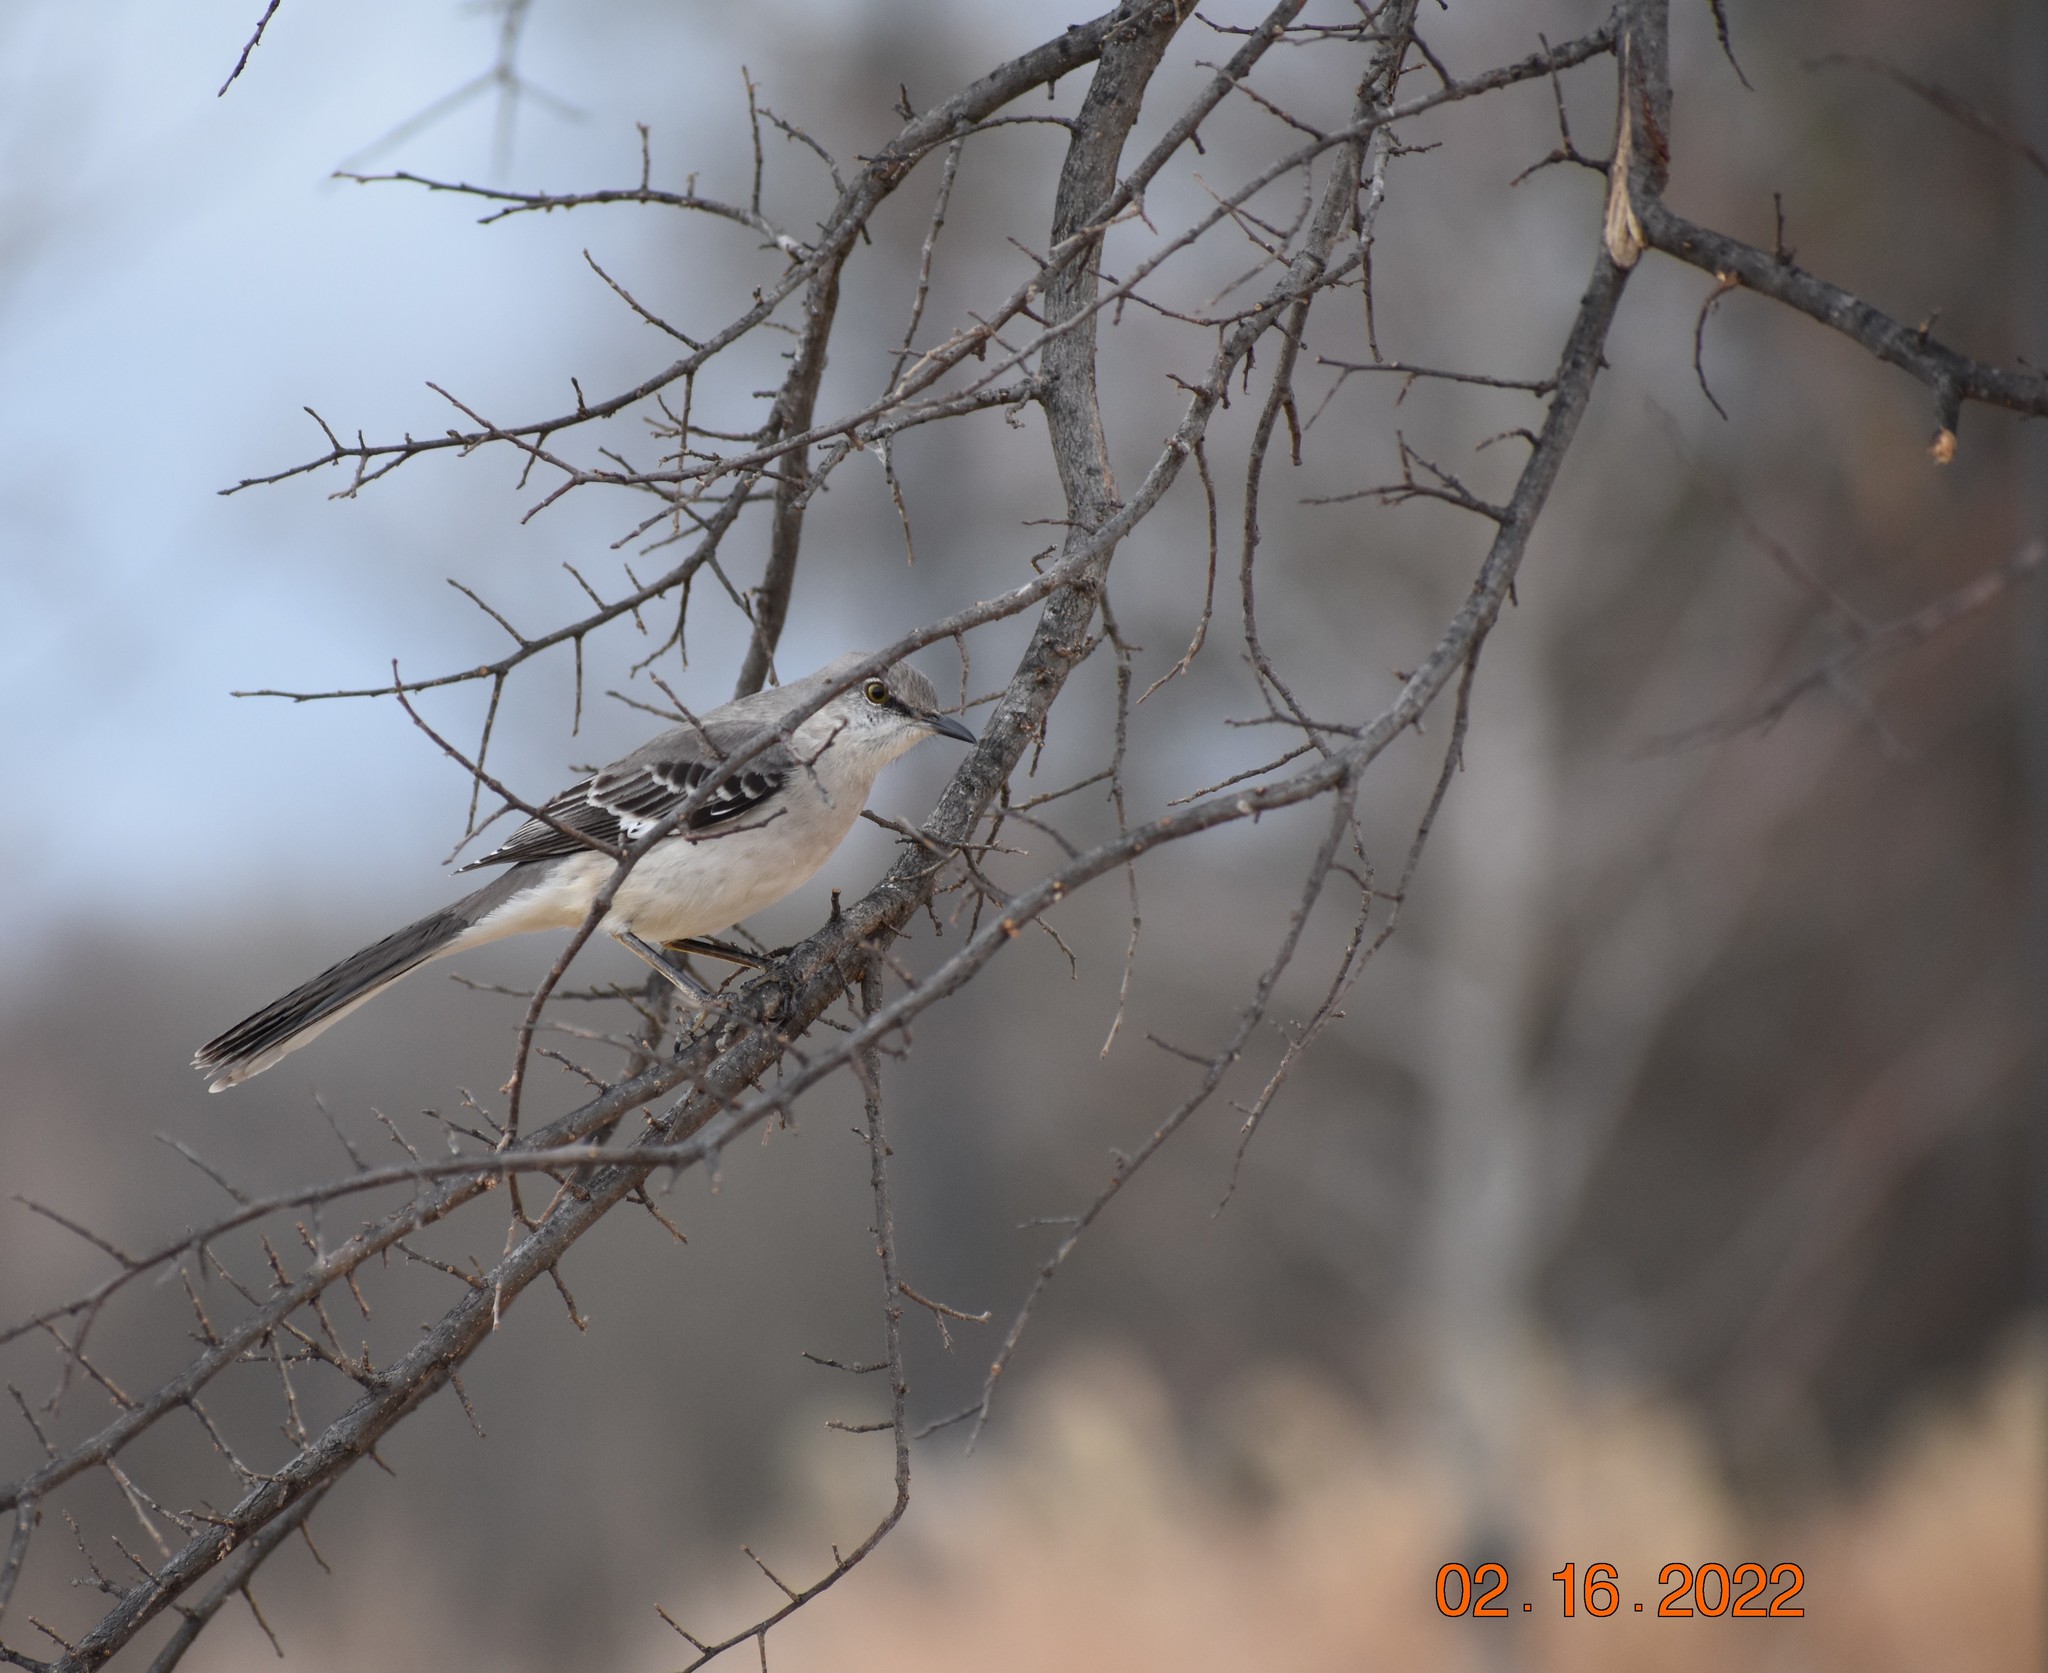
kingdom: Animalia
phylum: Chordata
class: Aves
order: Passeriformes
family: Mimidae
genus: Mimus
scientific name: Mimus polyglottos
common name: Northern mockingbird
